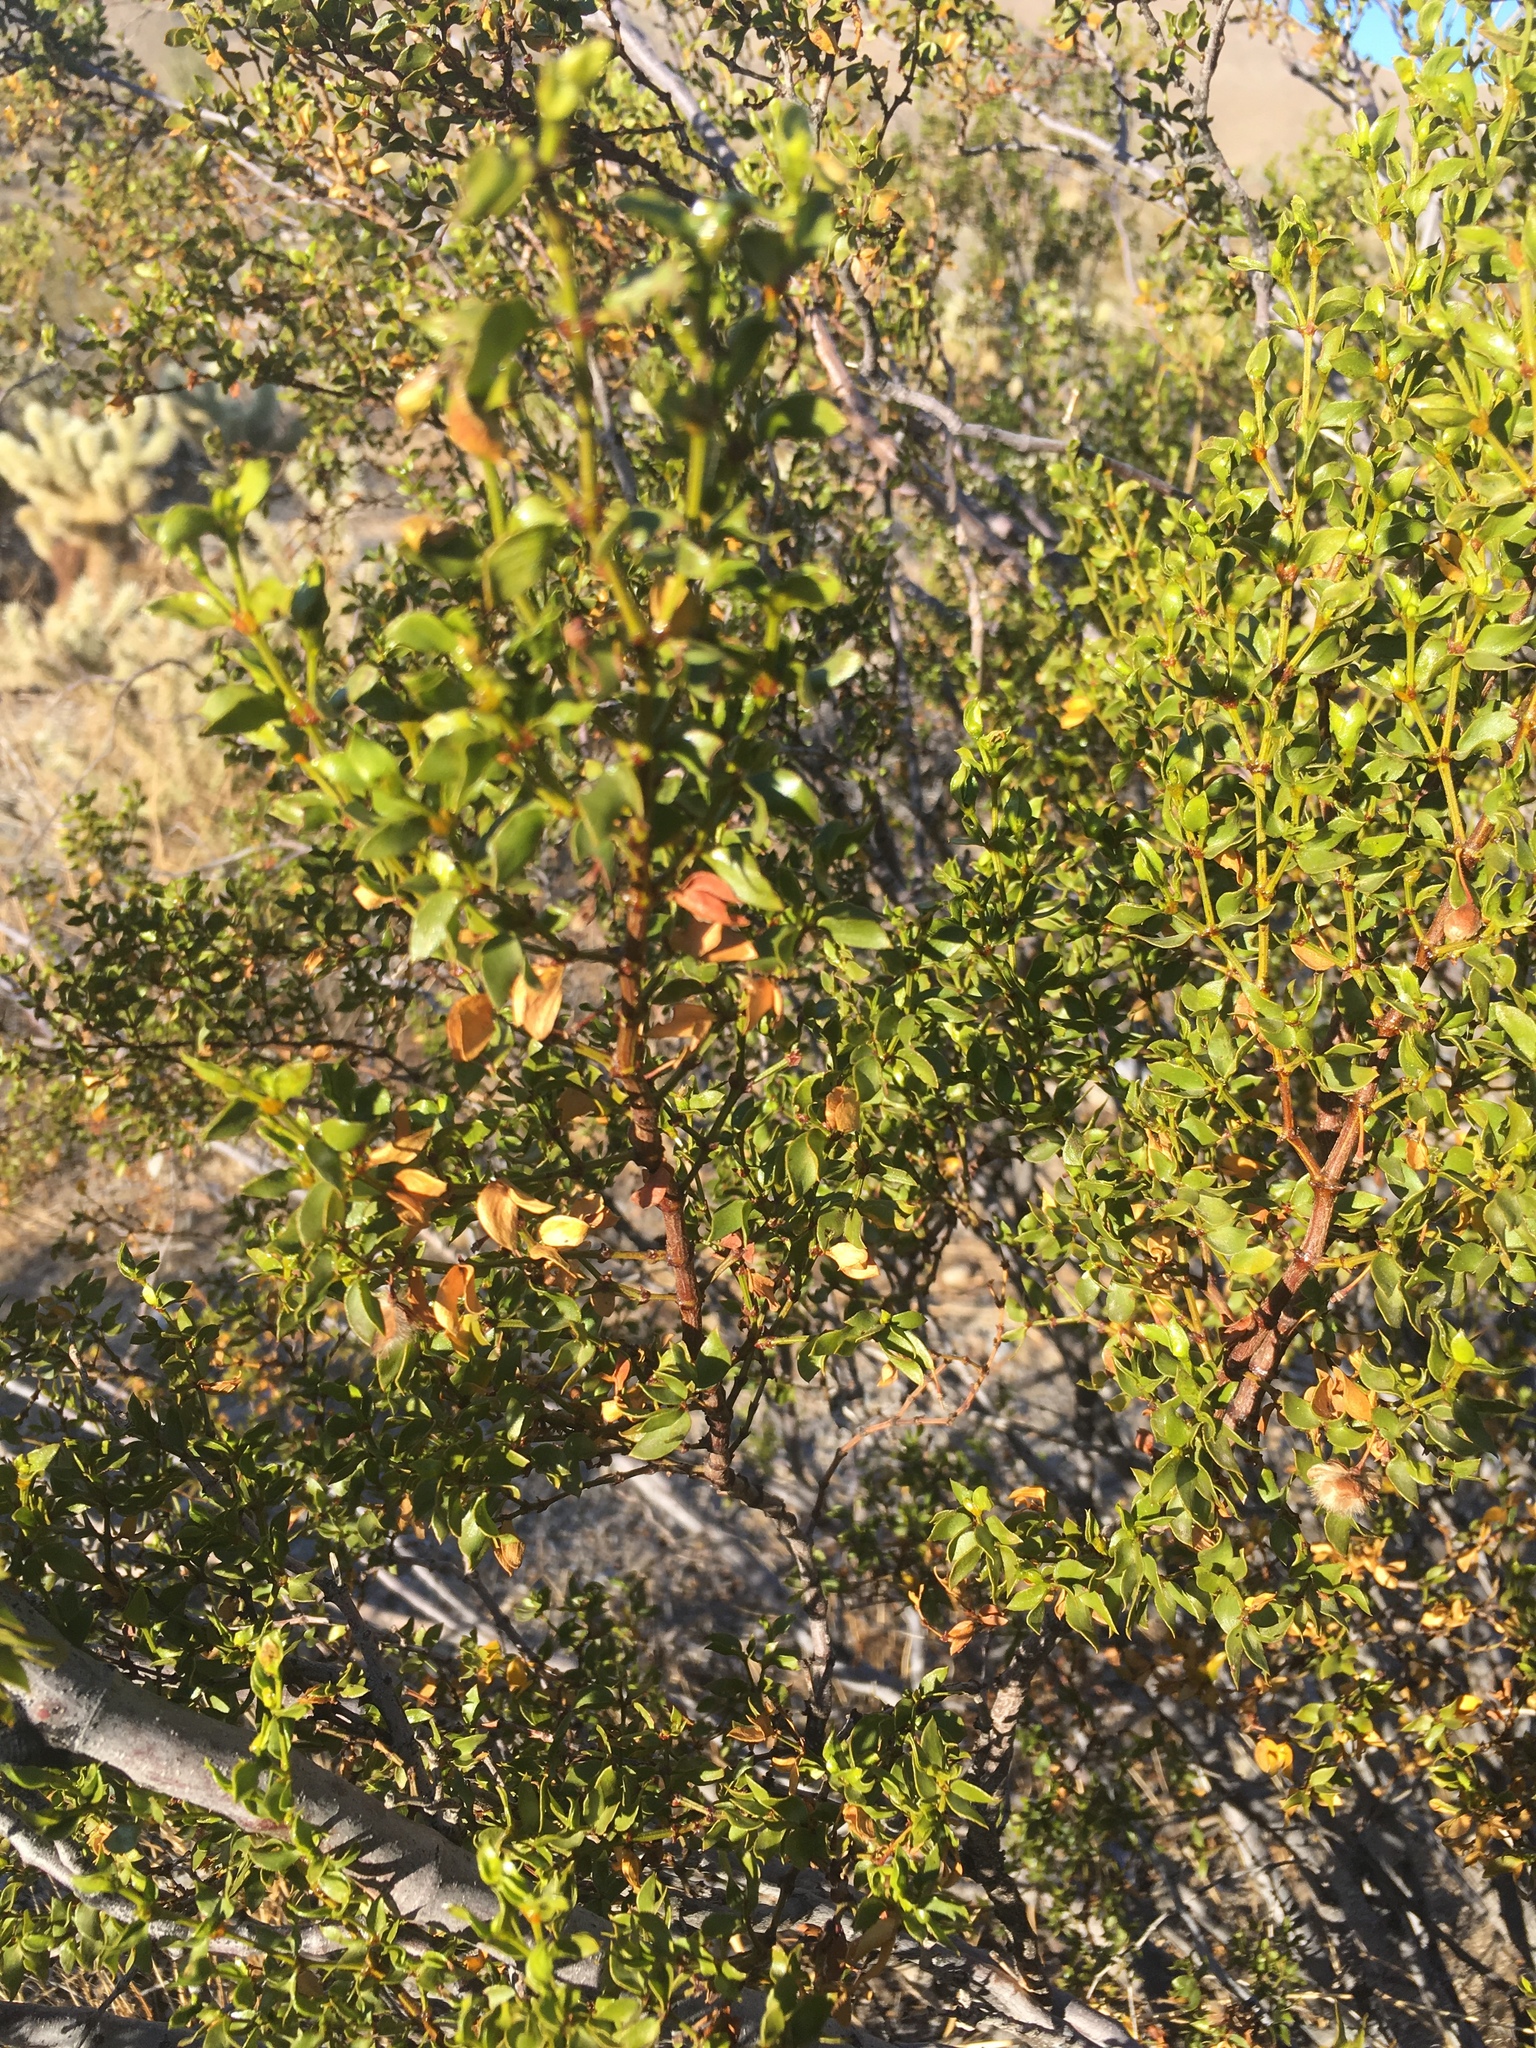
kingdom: Plantae
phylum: Tracheophyta
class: Magnoliopsida
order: Zygophyllales
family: Zygophyllaceae
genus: Larrea
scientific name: Larrea tridentata
